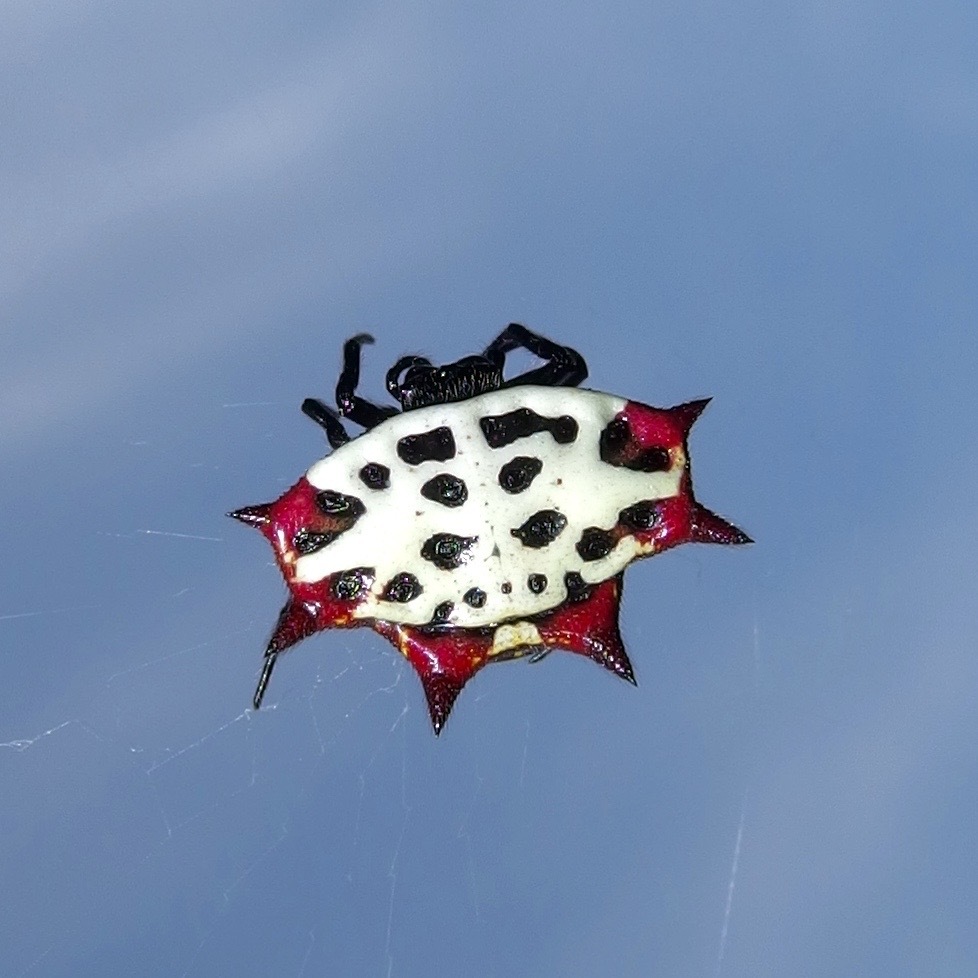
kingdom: Animalia
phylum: Arthropoda
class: Arachnida
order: Araneae
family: Araneidae
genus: Gasteracantha
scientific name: Gasteracantha cancriformis
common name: Orb weavers
